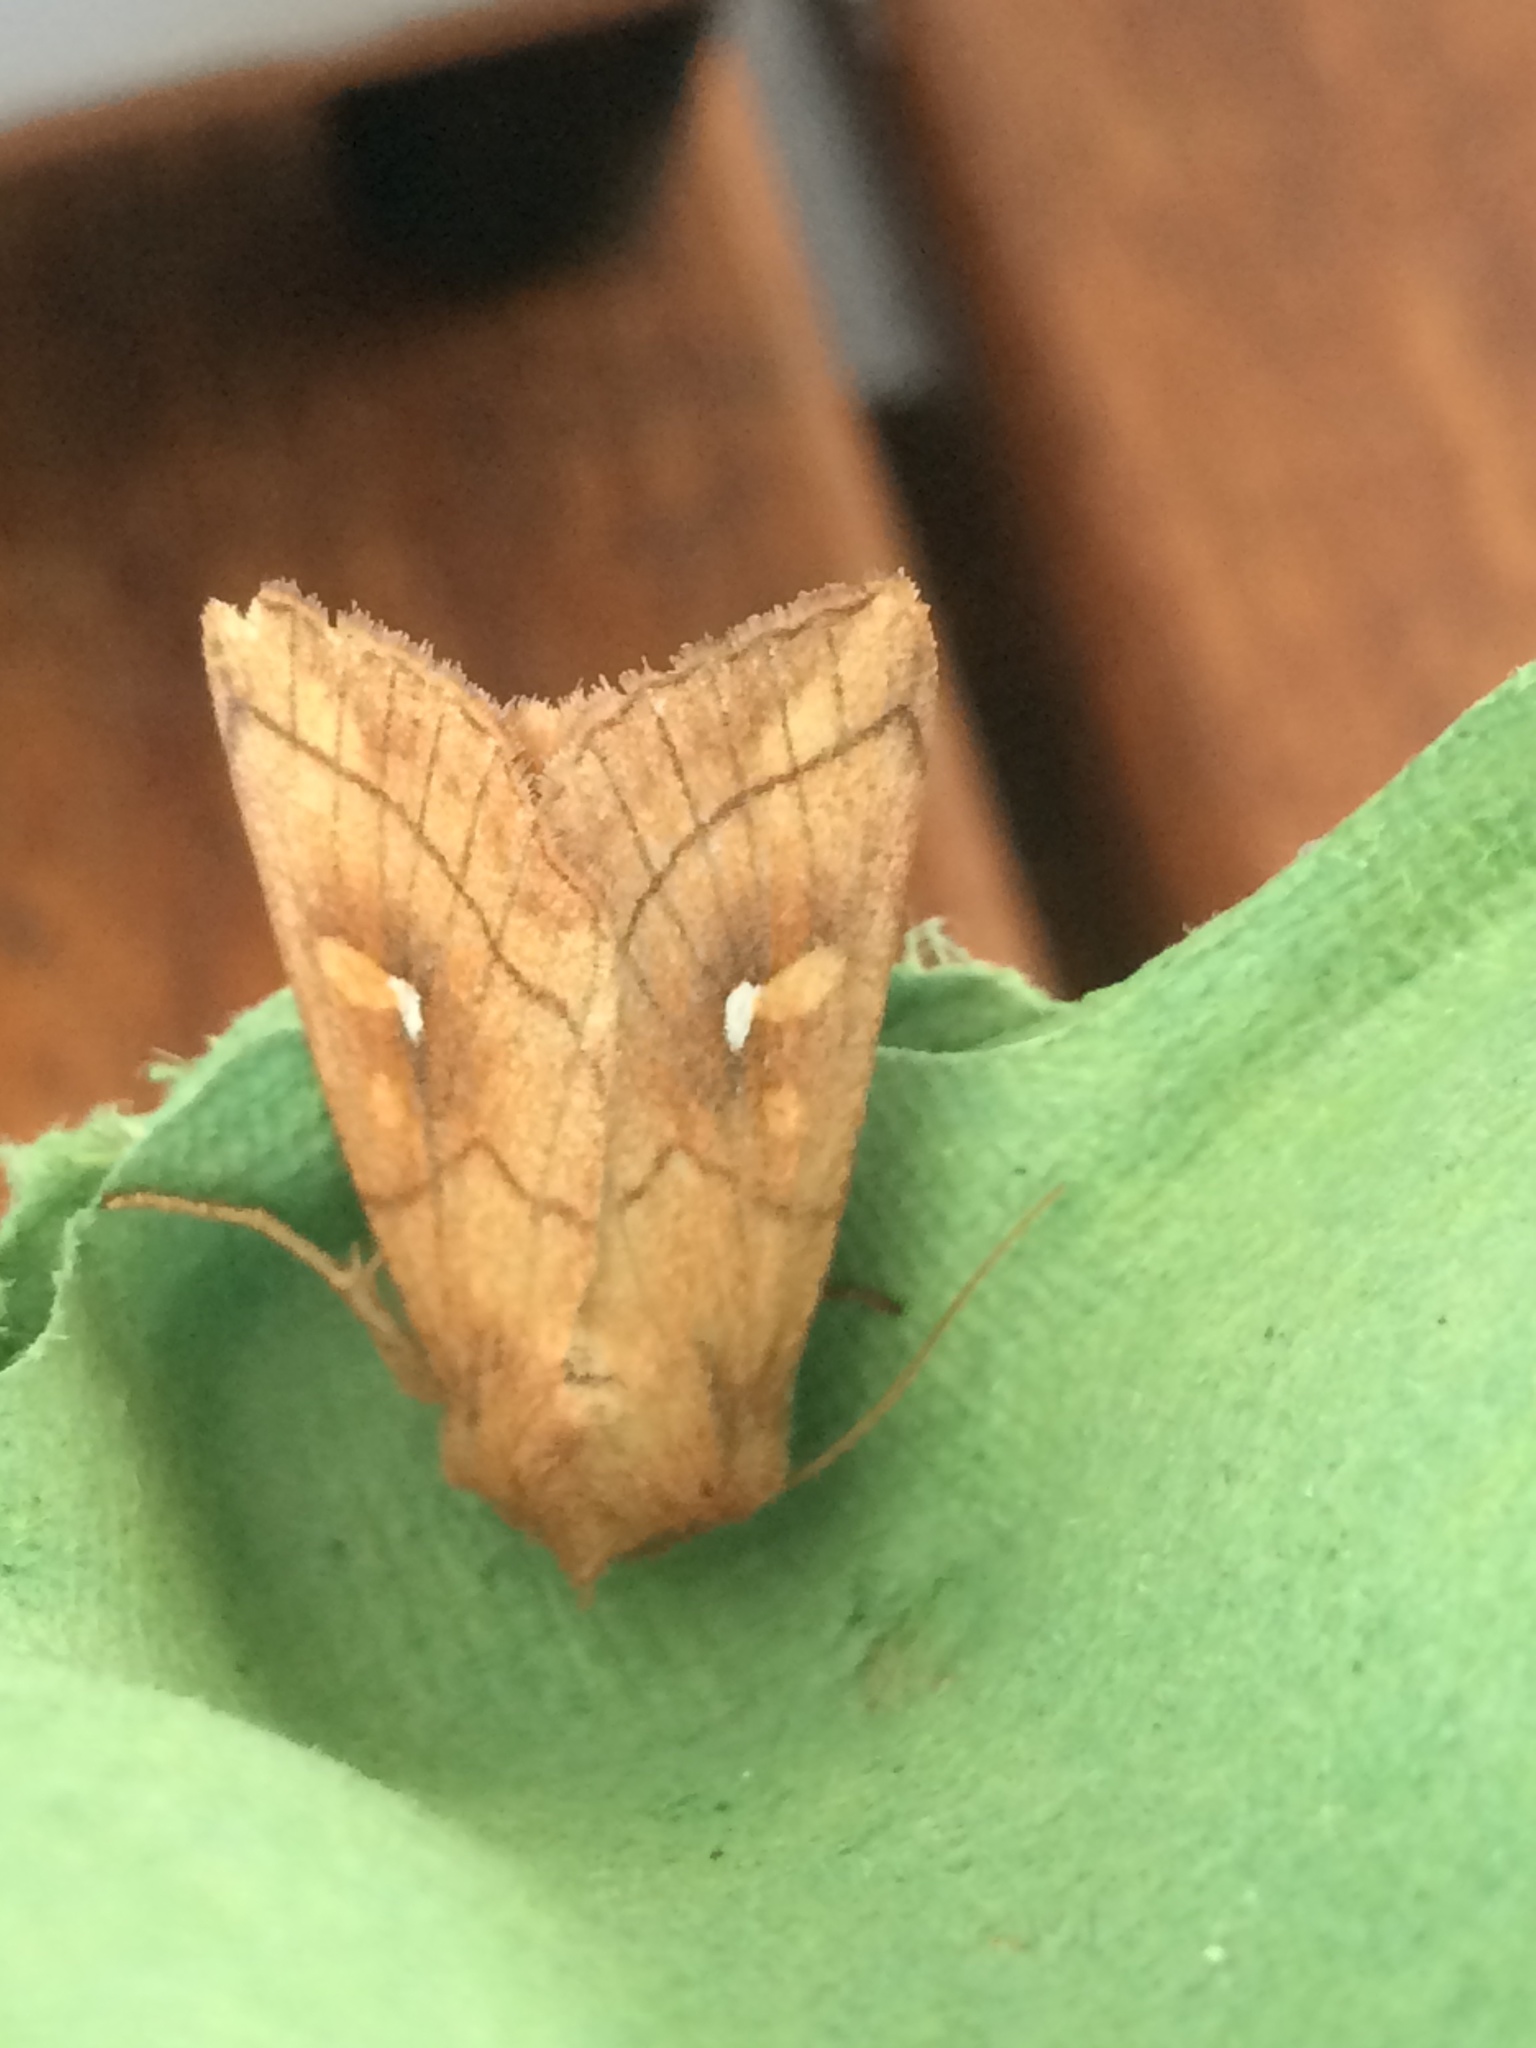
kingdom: Animalia
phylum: Arthropoda
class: Insecta
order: Lepidoptera
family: Noctuidae
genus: Mythimna
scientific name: Mythimna conigera
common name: Brown-line bright-eye
